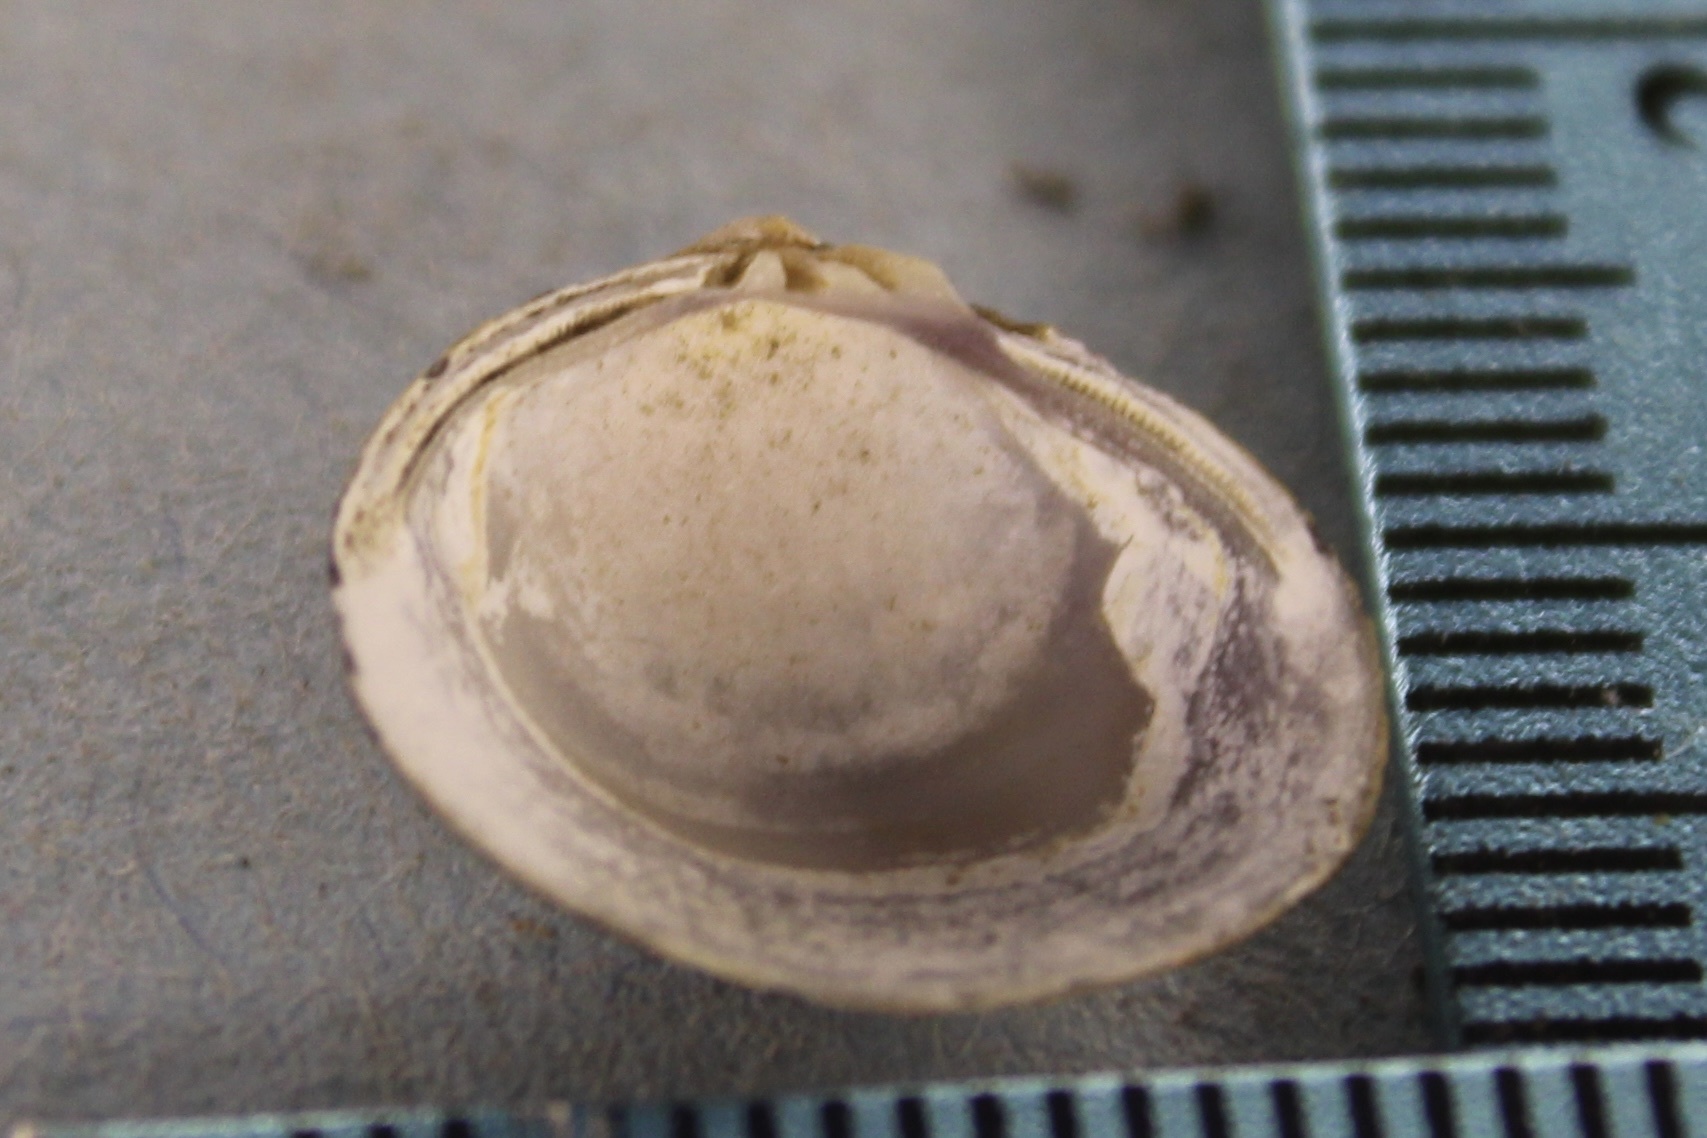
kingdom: Animalia
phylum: Mollusca
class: Bivalvia
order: Venerida
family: Cyrenidae
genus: Corbicula
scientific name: Corbicula fluminea
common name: Asian clam
